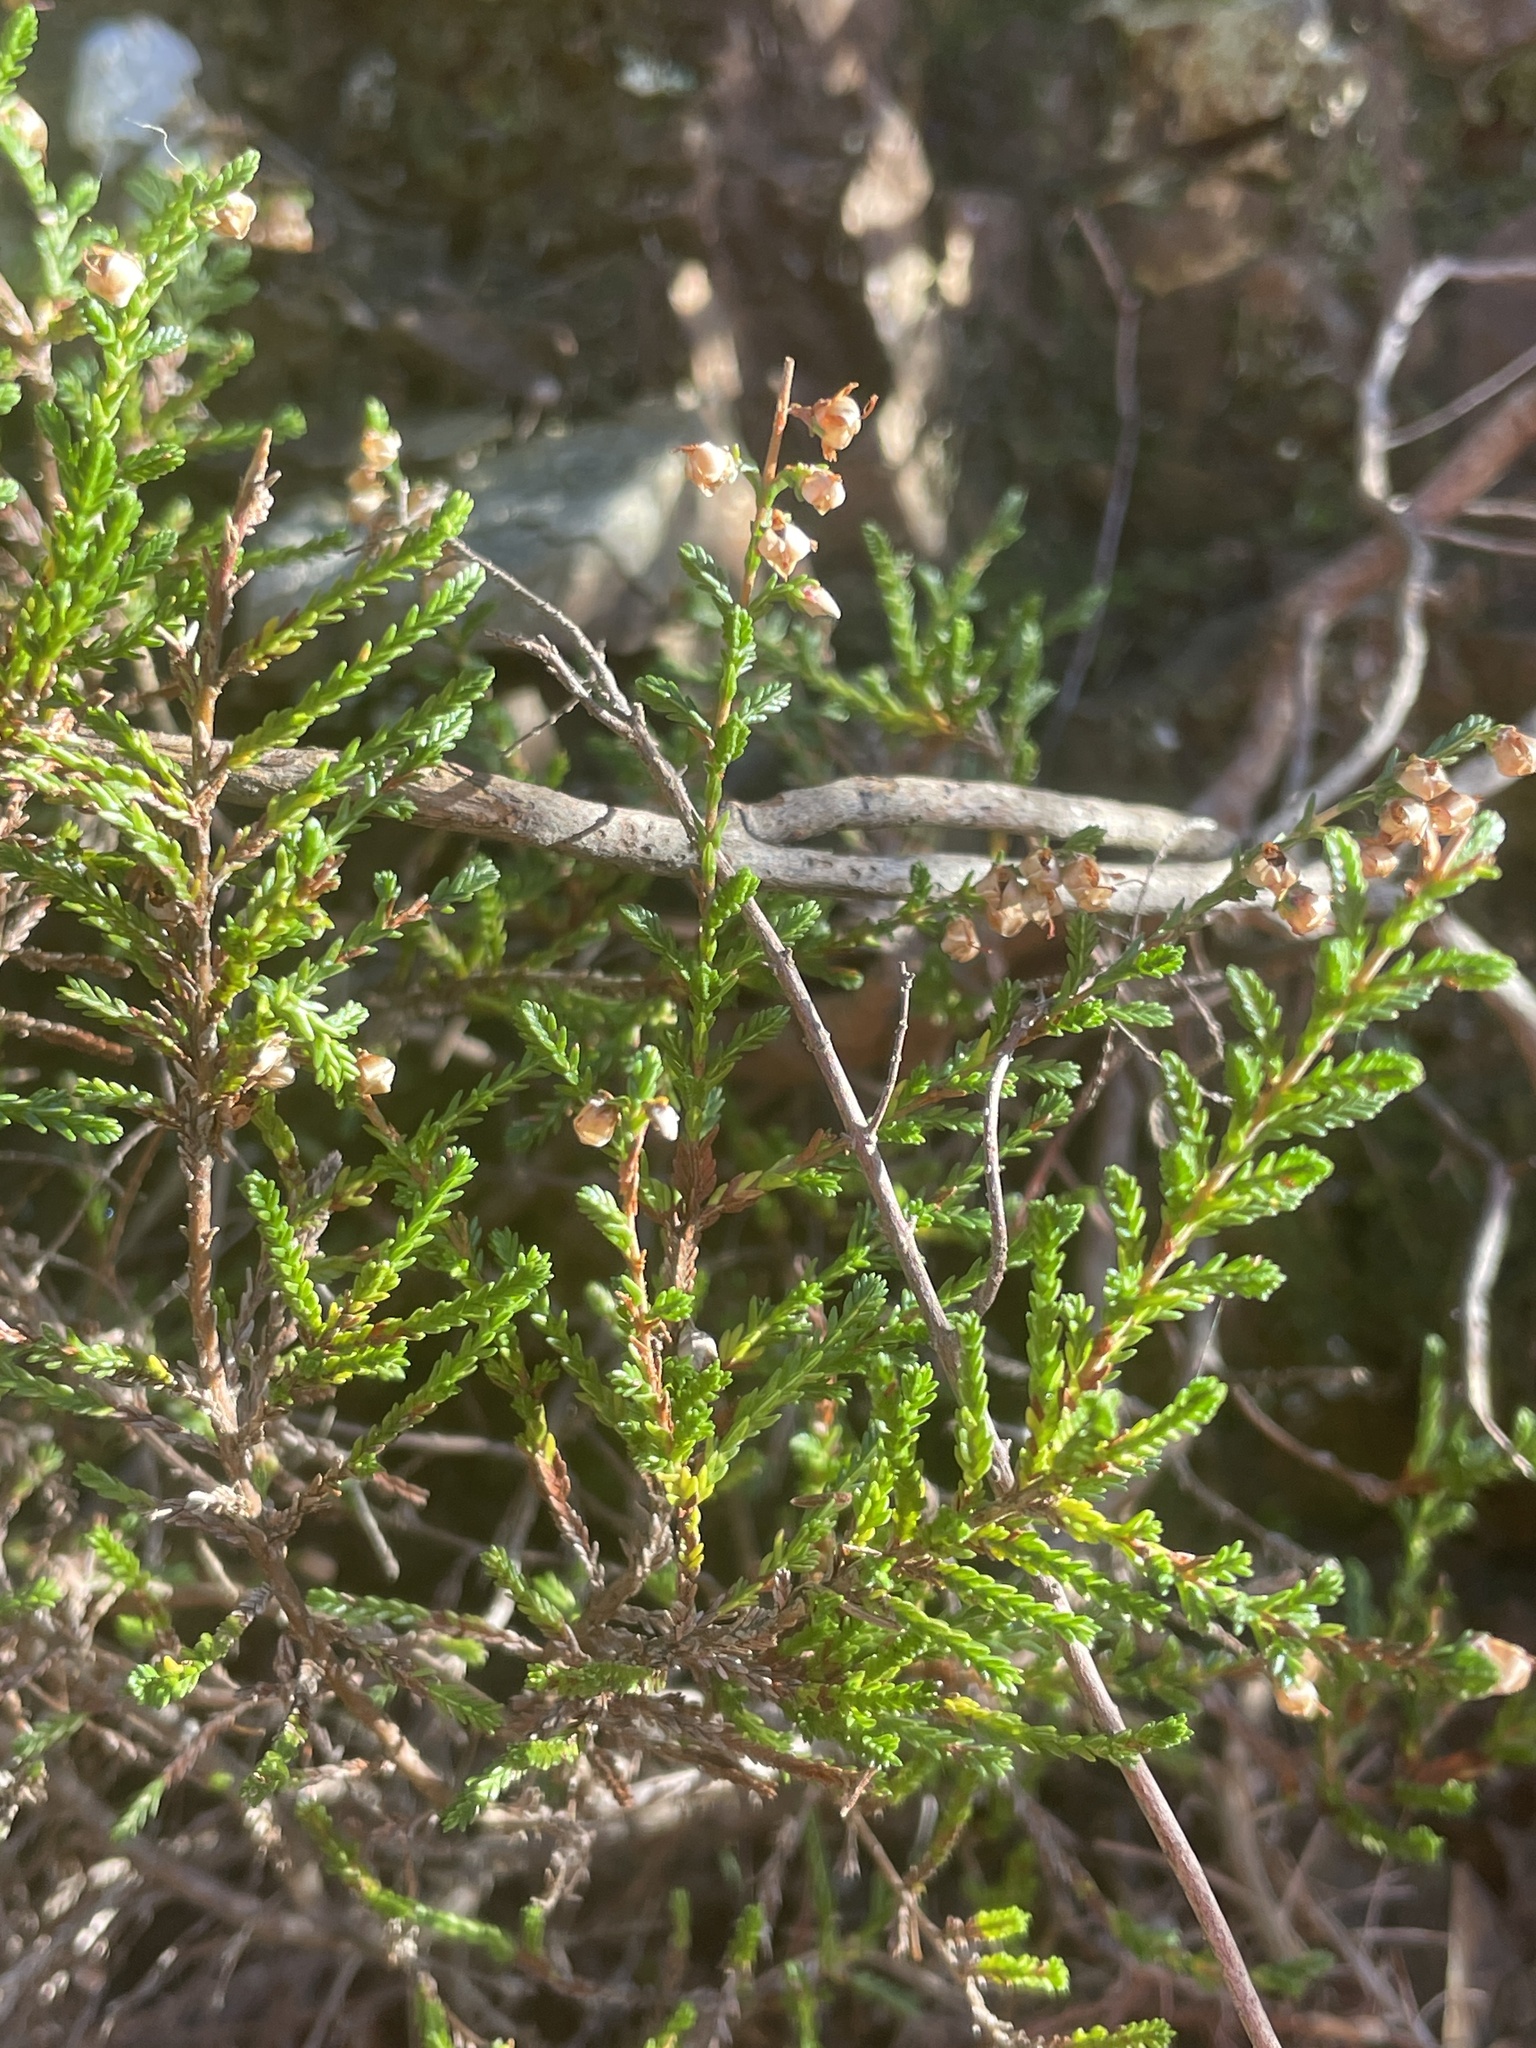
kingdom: Plantae
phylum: Tracheophyta
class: Magnoliopsida
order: Ericales
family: Ericaceae
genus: Calluna
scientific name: Calluna vulgaris
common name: Heather
